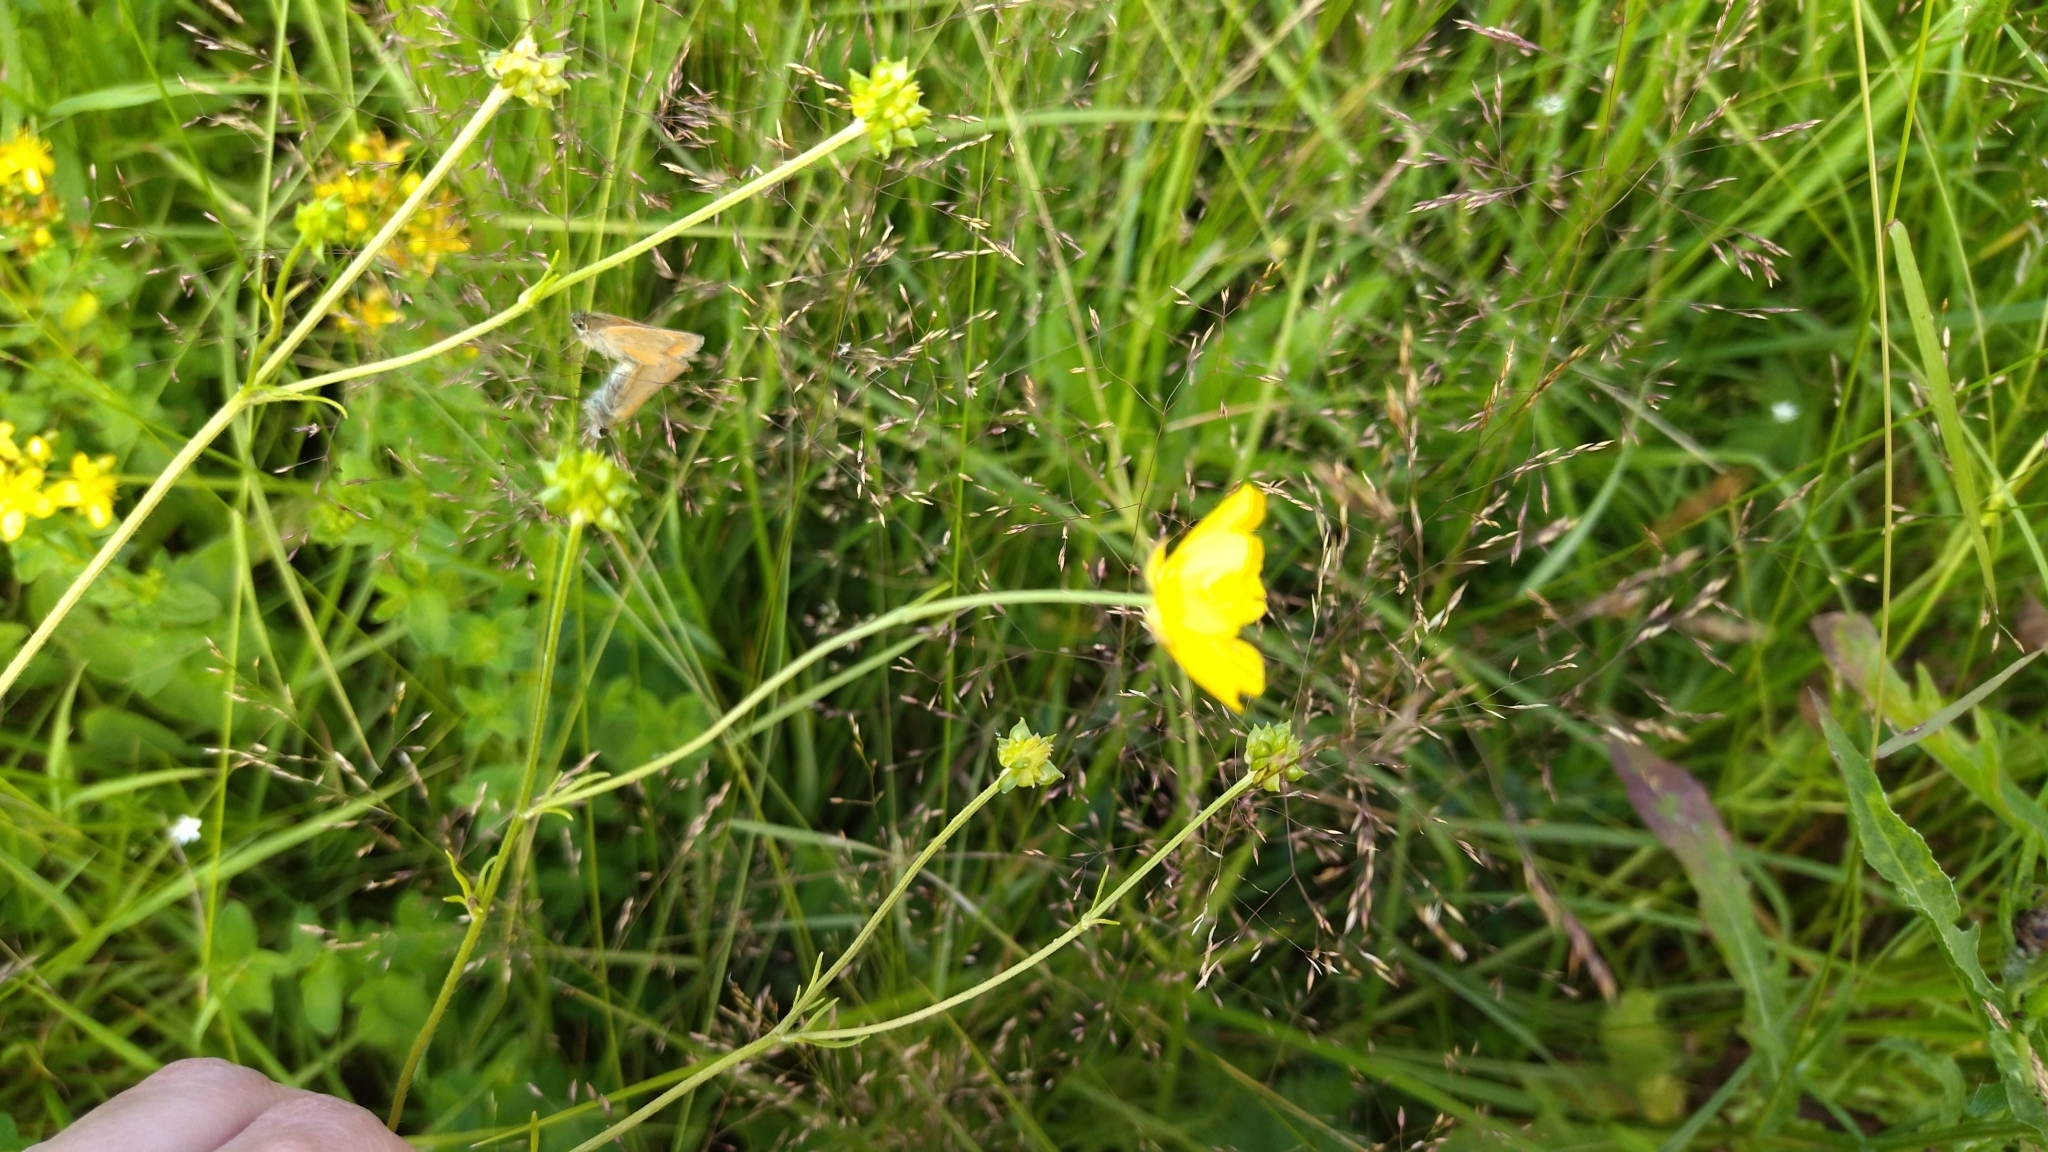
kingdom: Plantae
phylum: Tracheophyta
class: Magnoliopsida
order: Ranunculales
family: Ranunculaceae
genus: Ranunculus
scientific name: Ranunculus polyanthemos
